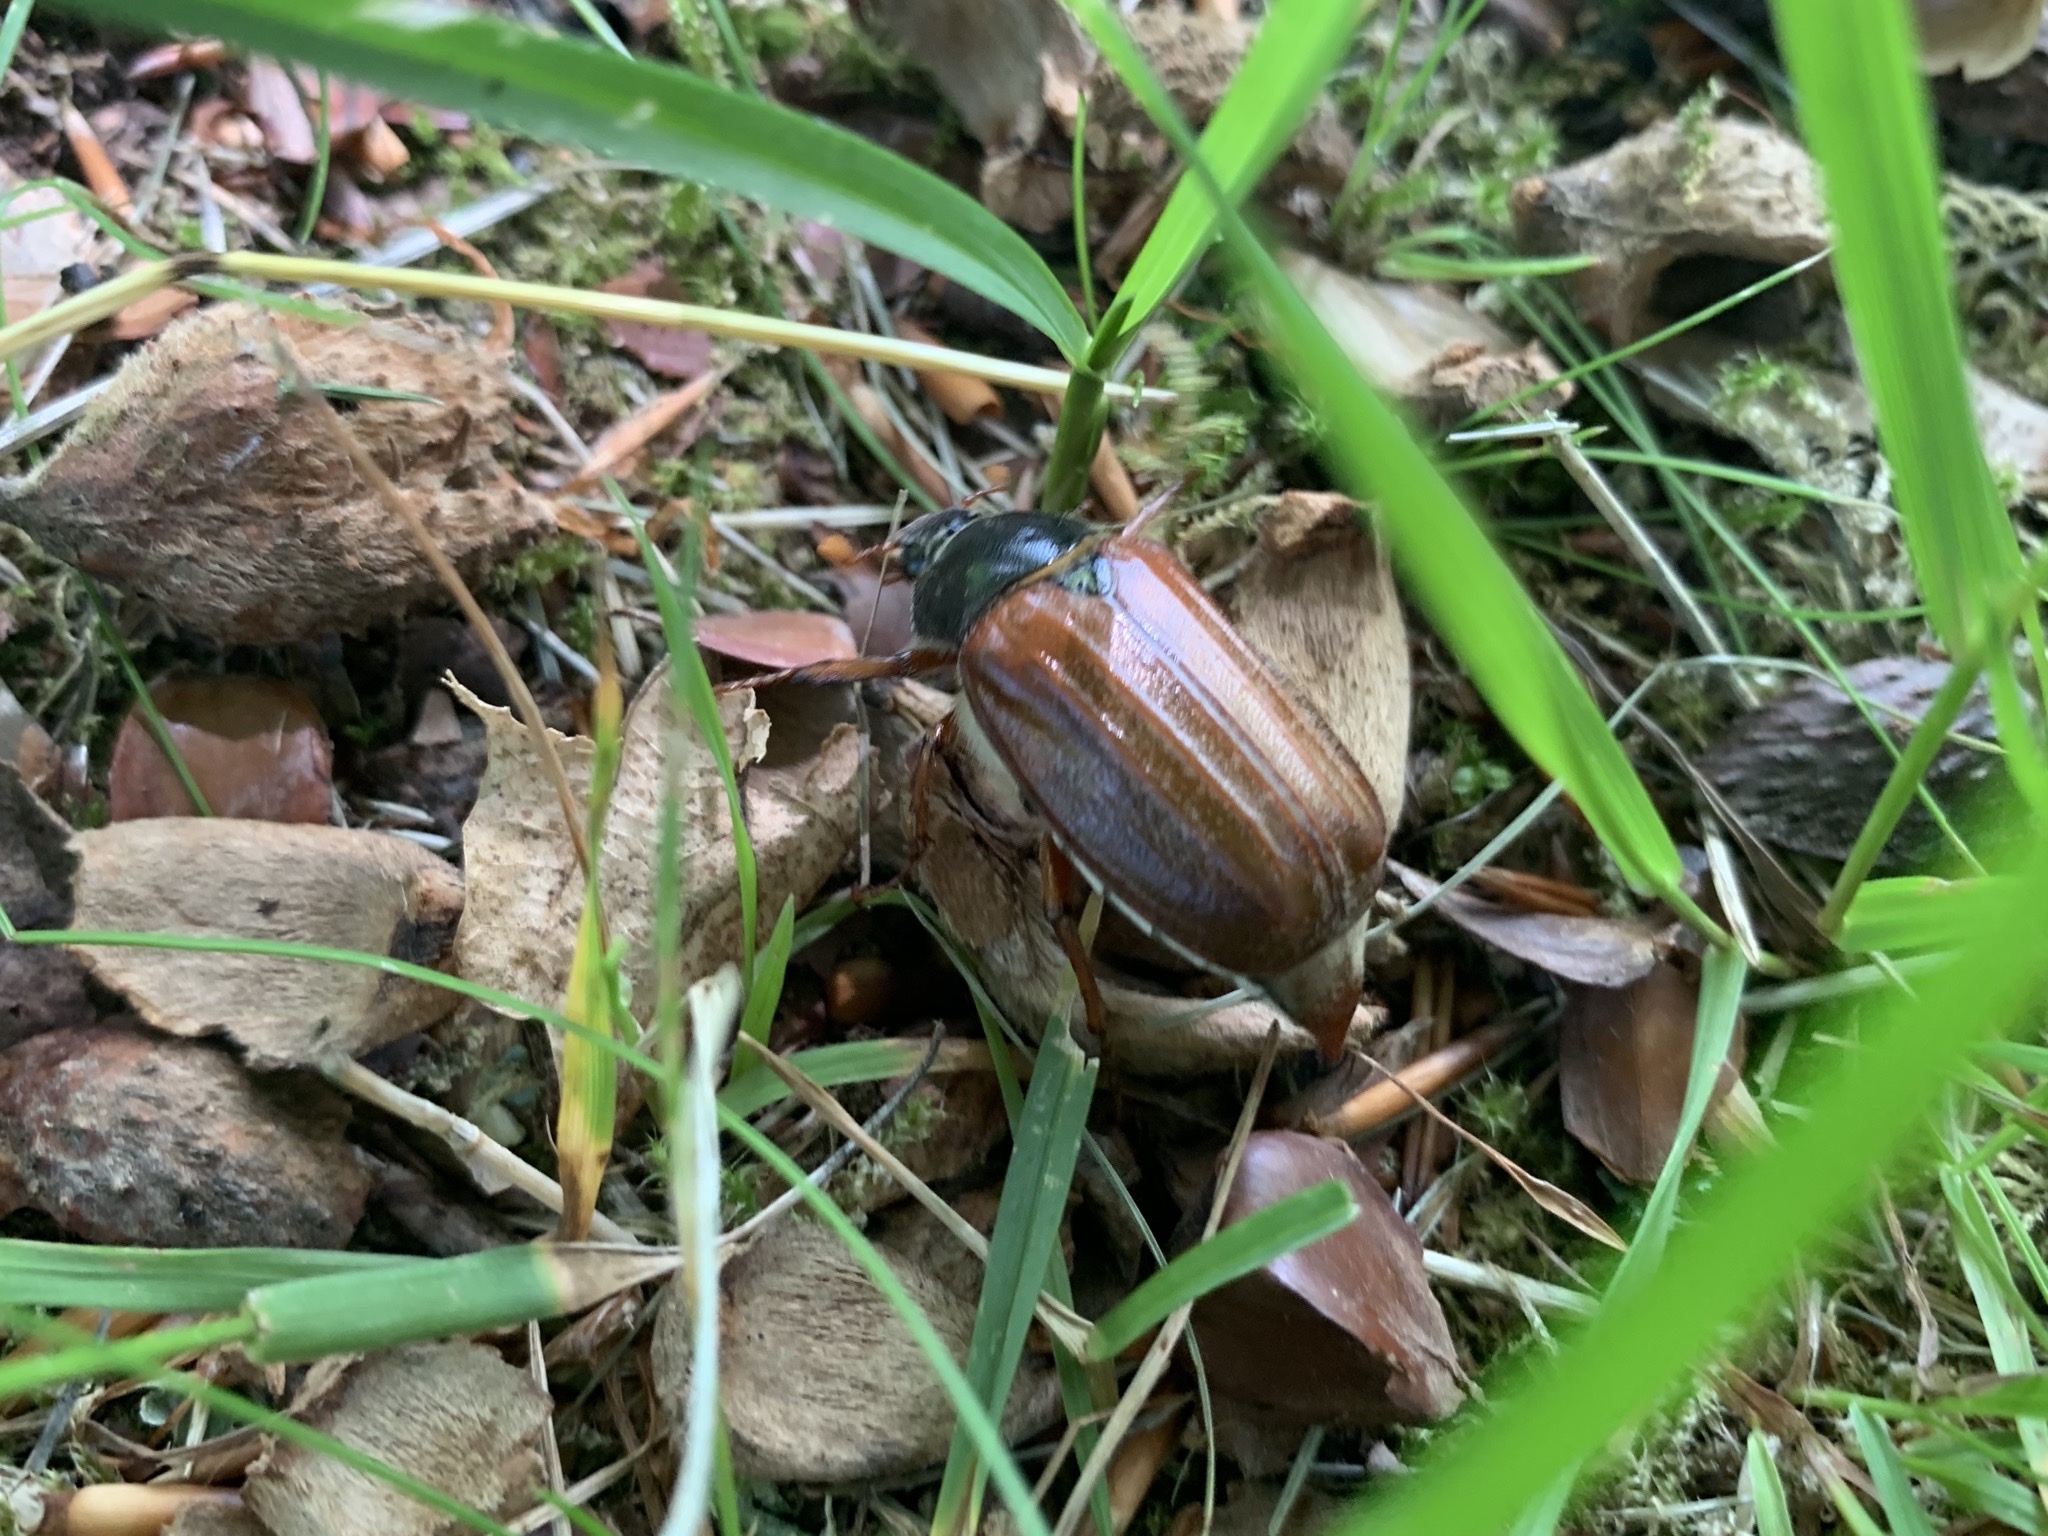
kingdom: Animalia
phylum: Arthropoda
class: Insecta
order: Coleoptera
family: Scarabaeidae
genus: Melolontha
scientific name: Melolontha melolontha
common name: Cockchafer maybeetle
